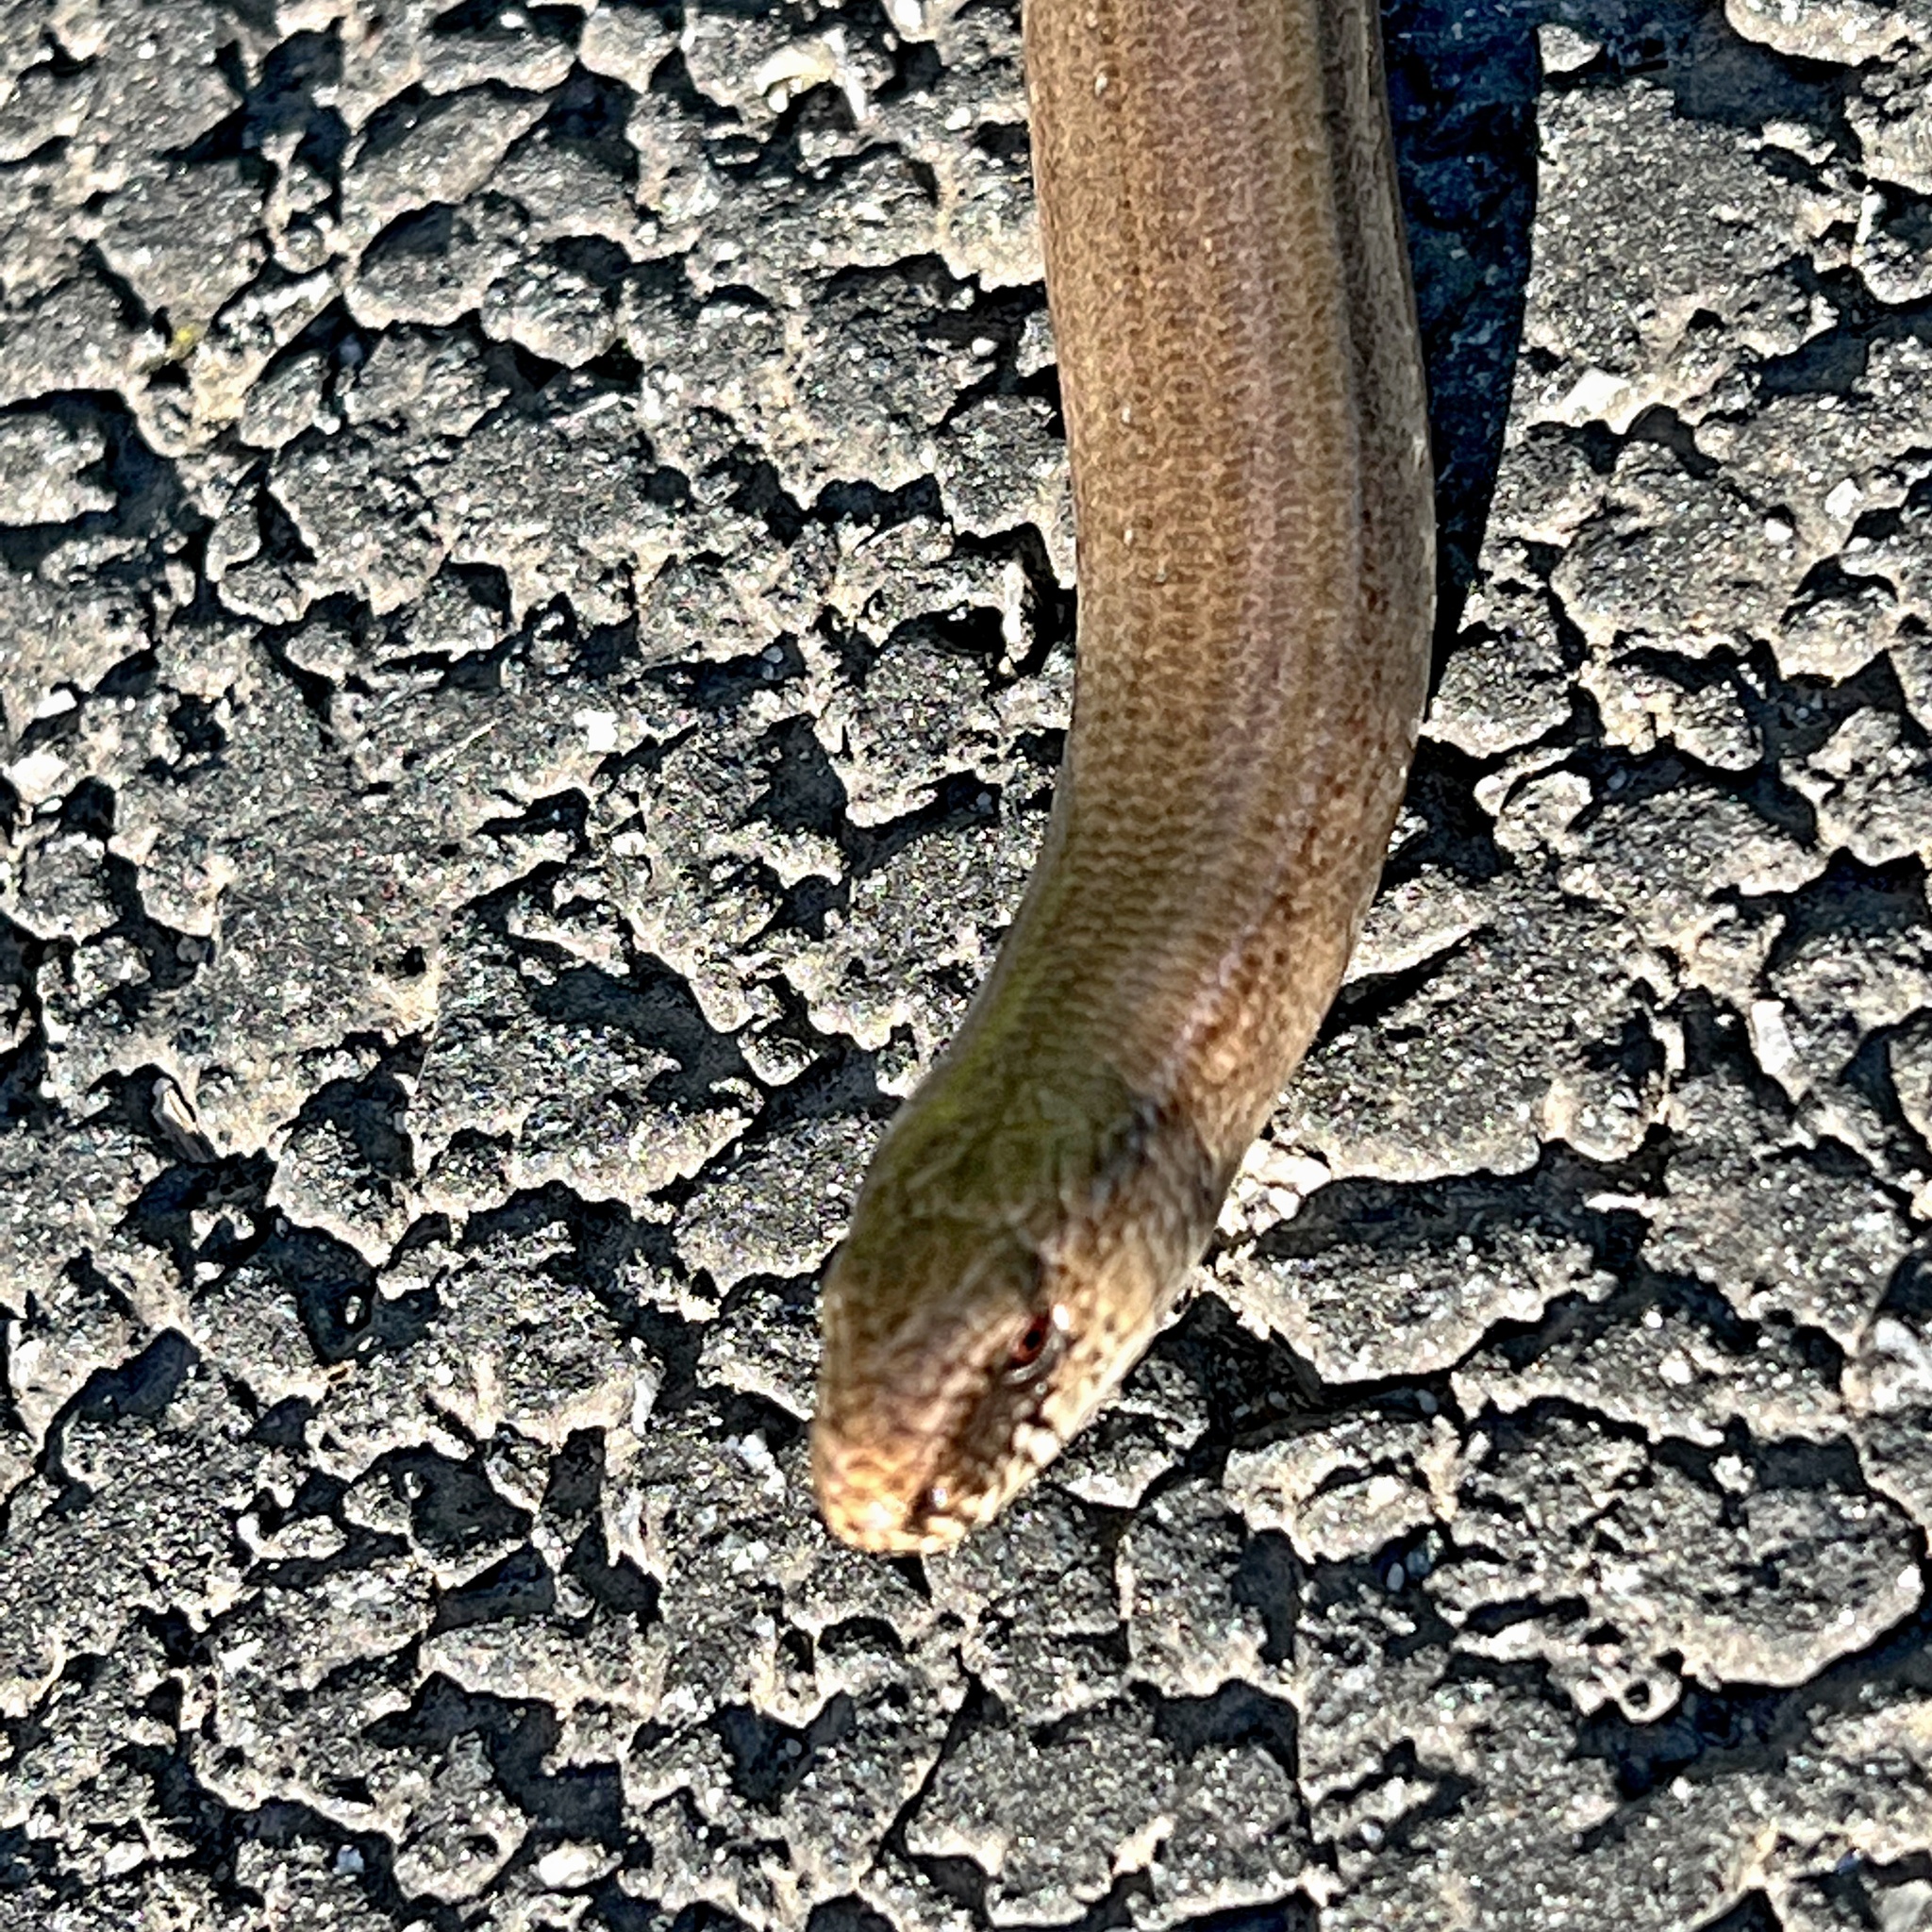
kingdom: Animalia
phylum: Chordata
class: Squamata
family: Anguidae
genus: Anguis
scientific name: Anguis fragilis
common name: Slow worm
